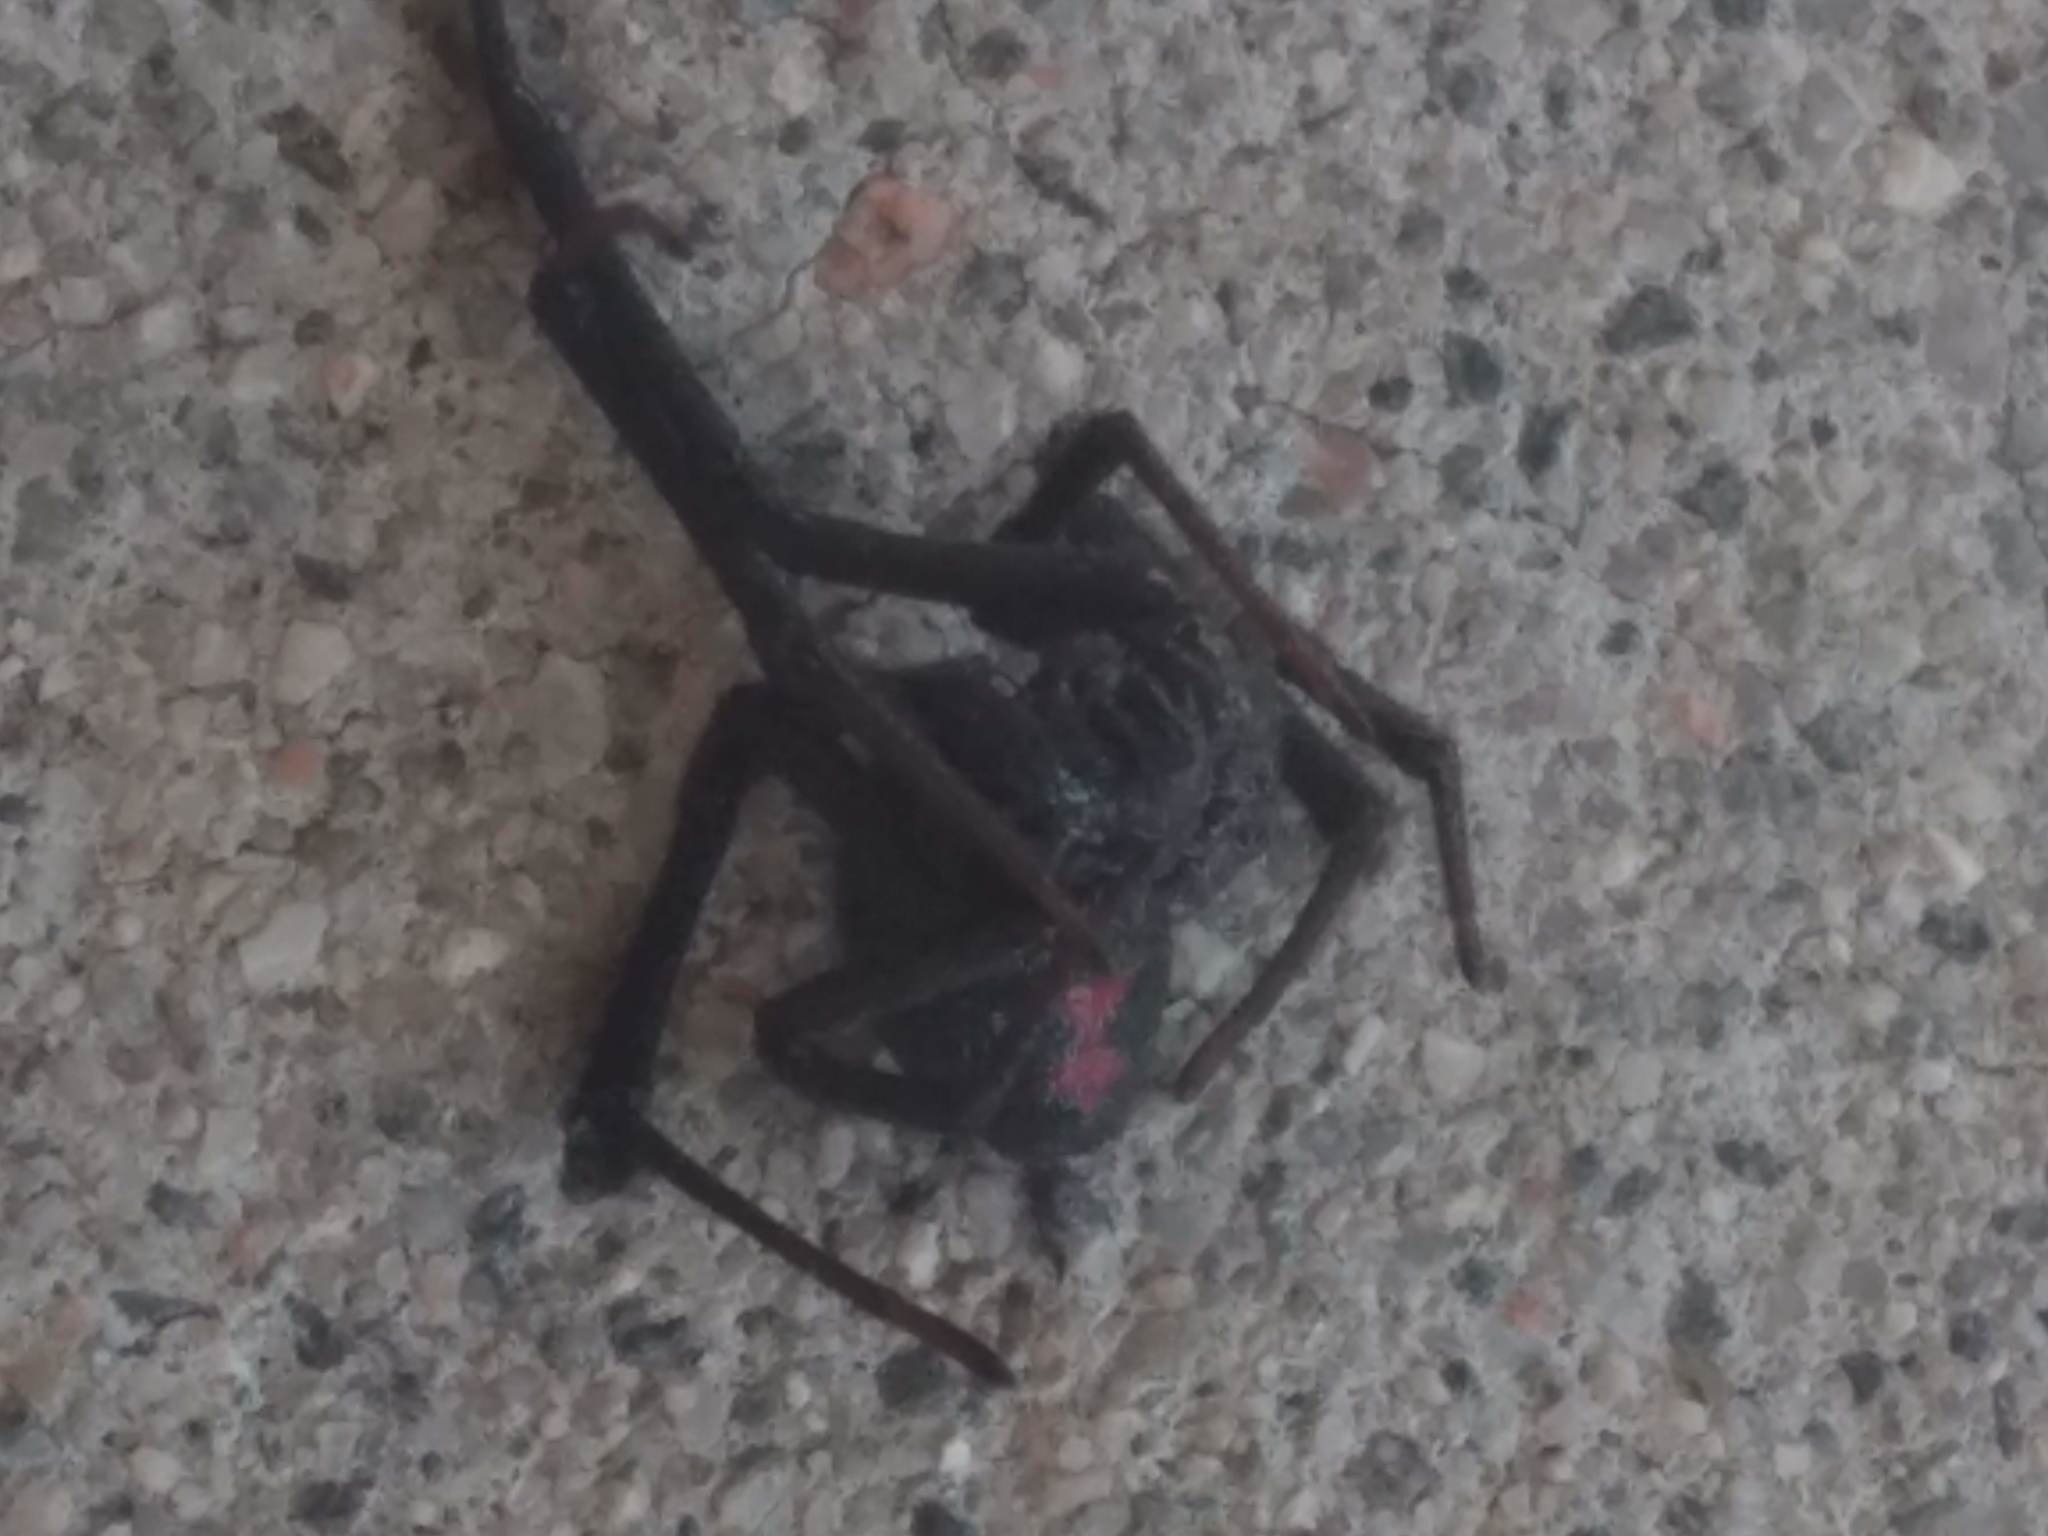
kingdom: Animalia
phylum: Arthropoda
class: Arachnida
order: Araneae
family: Theridiidae
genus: Latrodectus
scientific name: Latrodectus hesperus
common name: Western black widow
